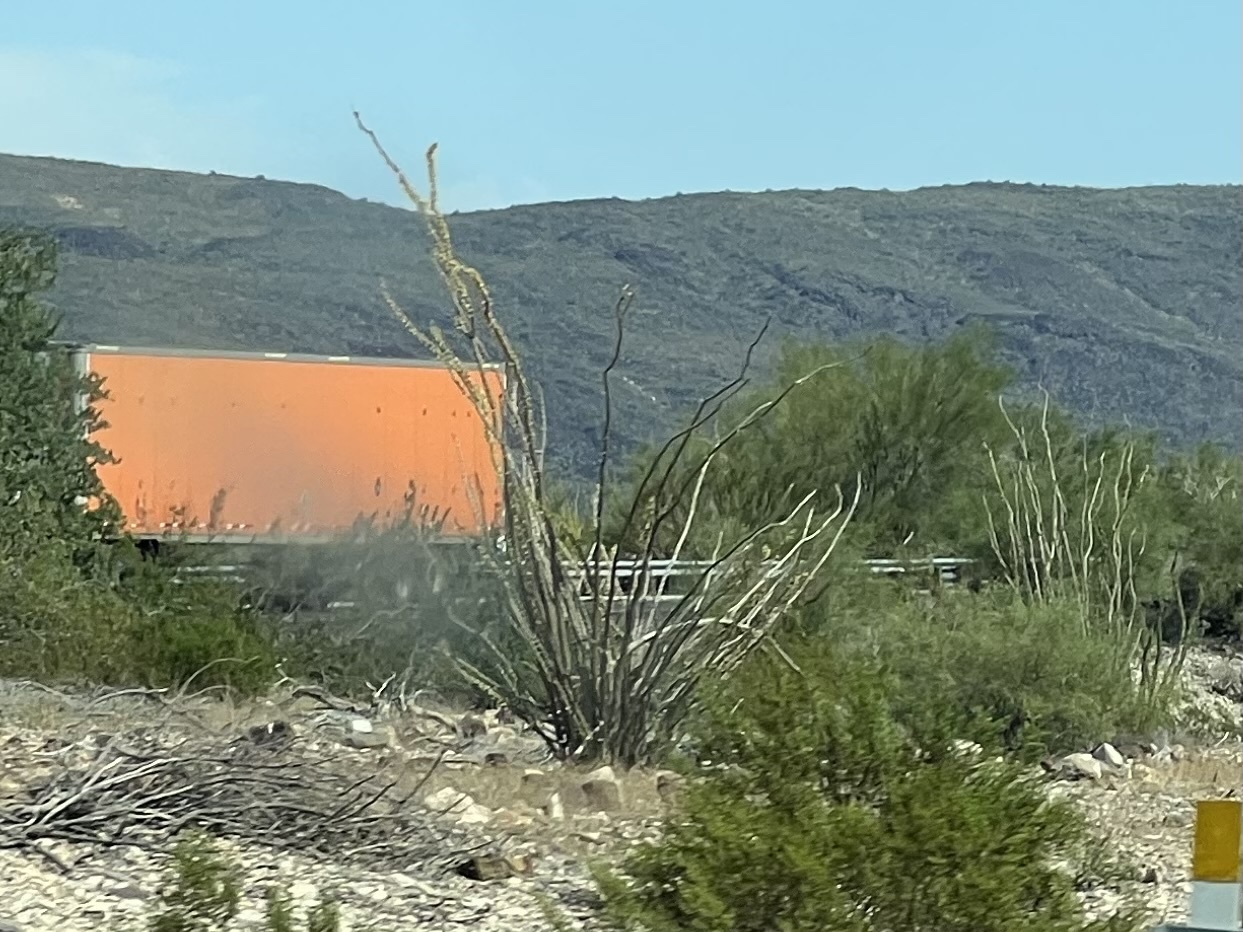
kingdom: Plantae
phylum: Tracheophyta
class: Magnoliopsida
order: Ericales
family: Fouquieriaceae
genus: Fouquieria
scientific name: Fouquieria splendens
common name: Vine-cactus
